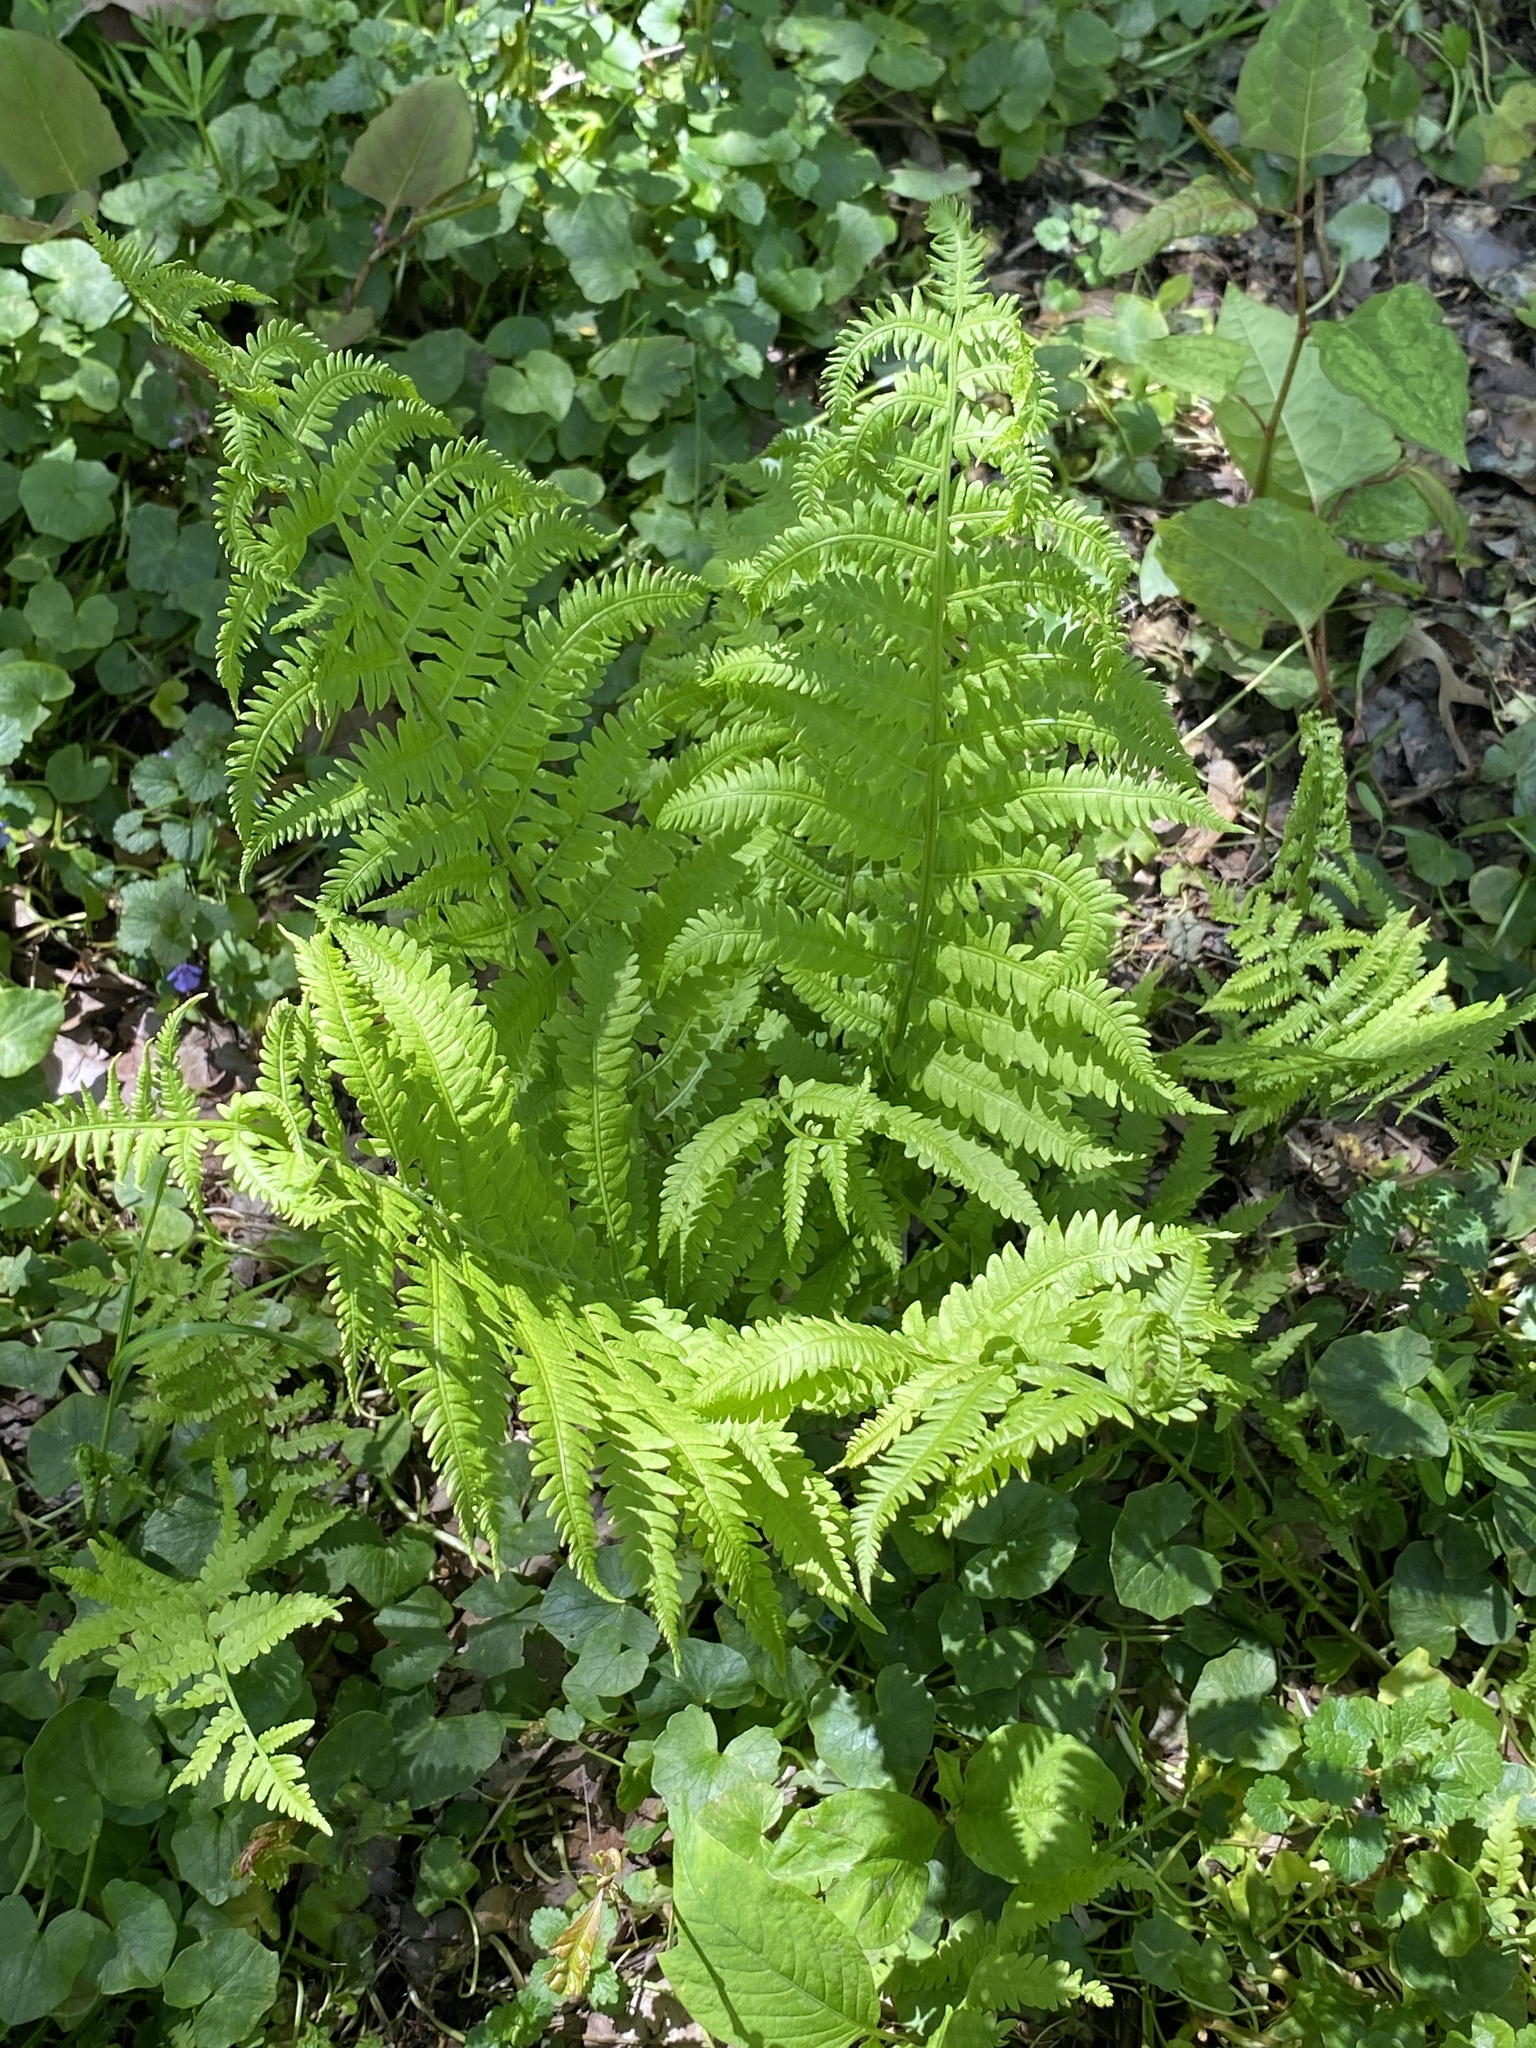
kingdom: Plantae
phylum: Tracheophyta
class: Polypodiopsida
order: Polypodiales
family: Onocleaceae
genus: Matteuccia
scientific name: Matteuccia struthiopteris
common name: Ostrich fern
